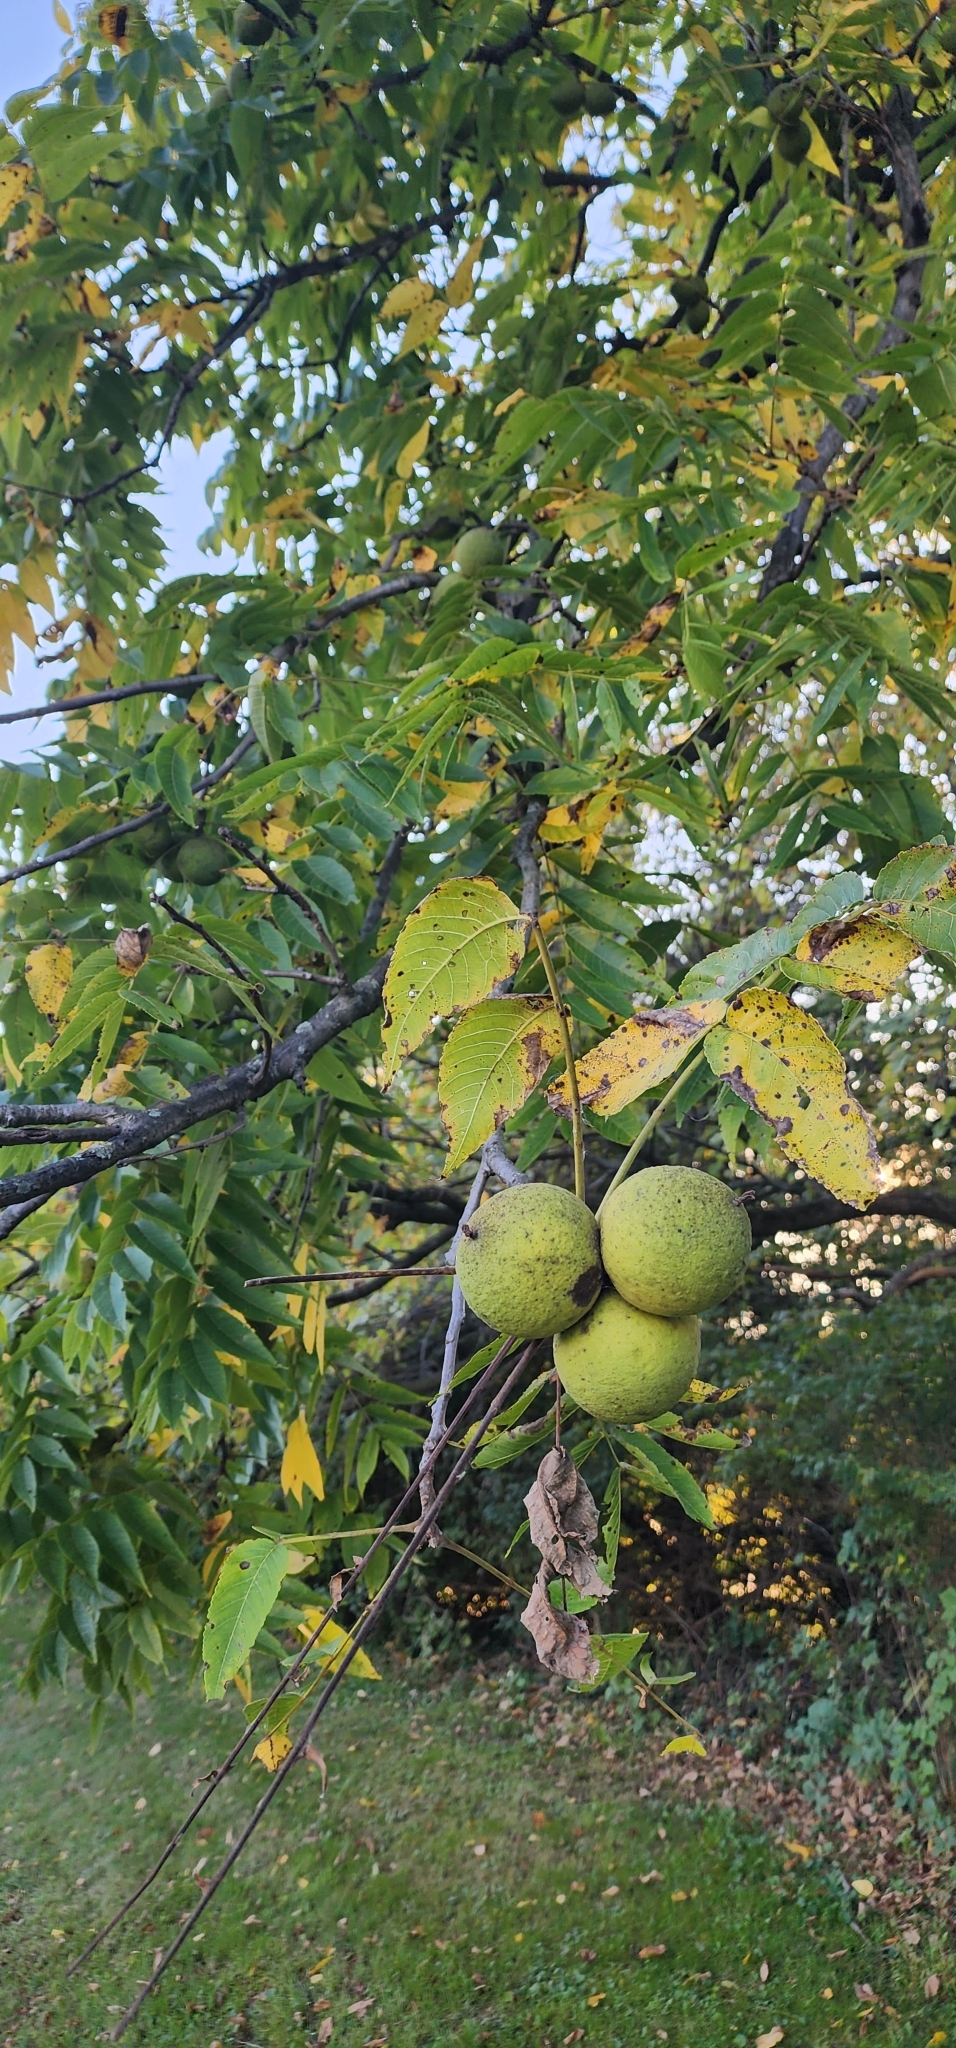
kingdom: Plantae
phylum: Tracheophyta
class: Magnoliopsida
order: Fagales
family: Juglandaceae
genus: Juglans
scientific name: Juglans nigra
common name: Black walnut
